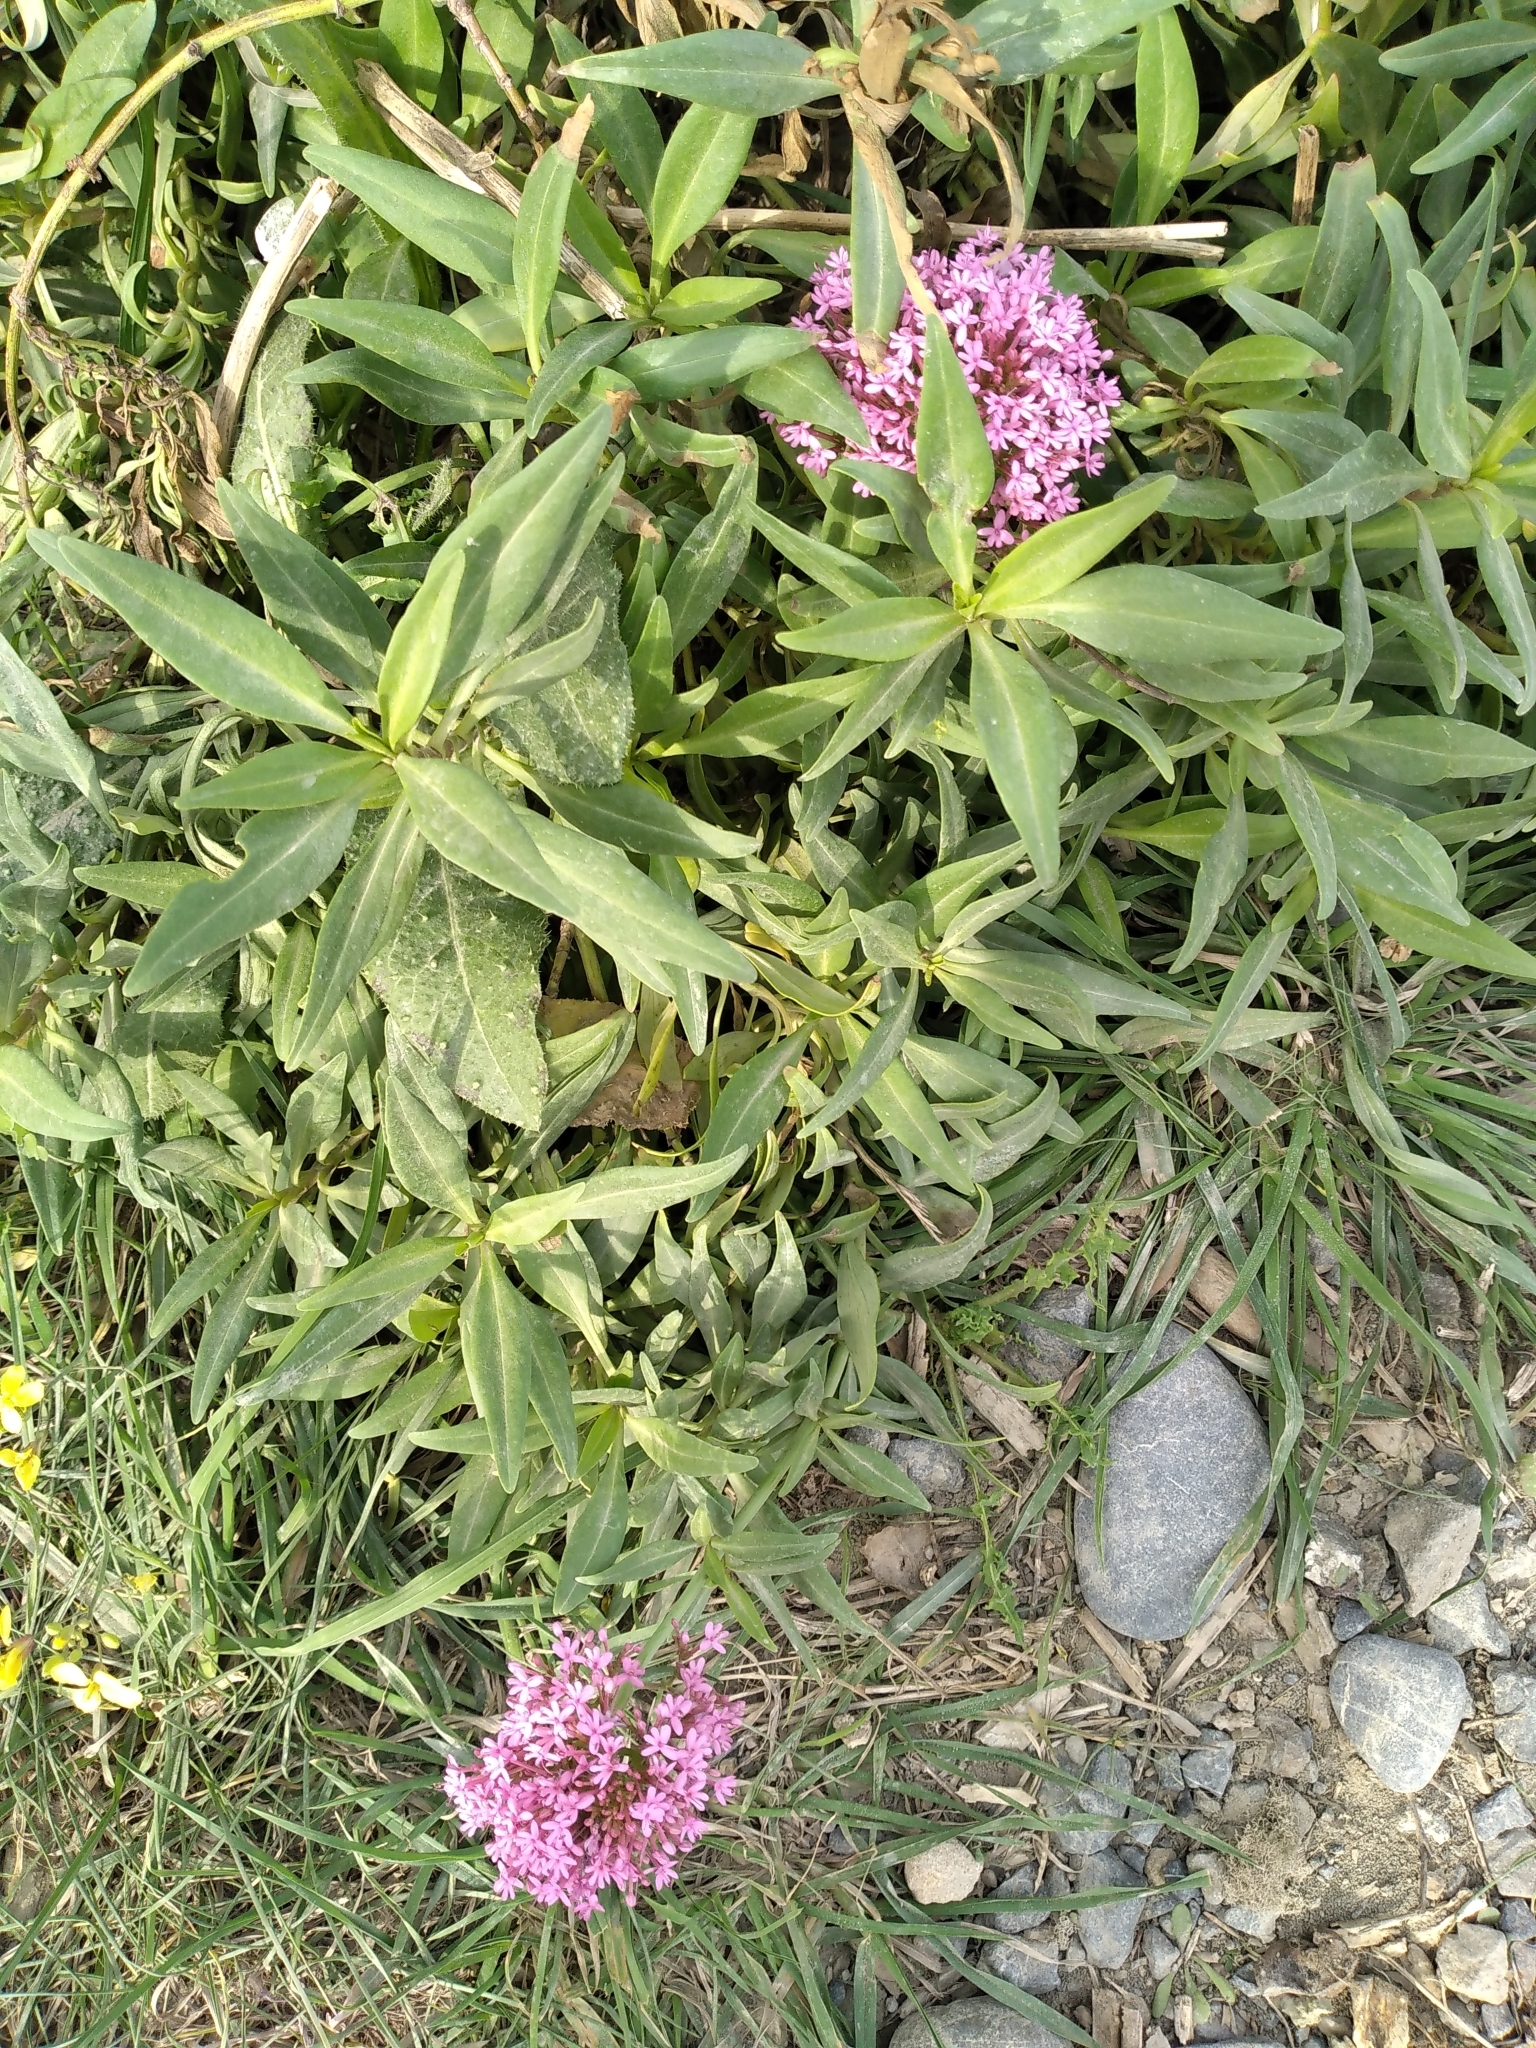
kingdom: Plantae
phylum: Tracheophyta
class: Magnoliopsida
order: Dipsacales
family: Caprifoliaceae
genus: Centranthus
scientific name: Centranthus ruber
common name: Red valerian
